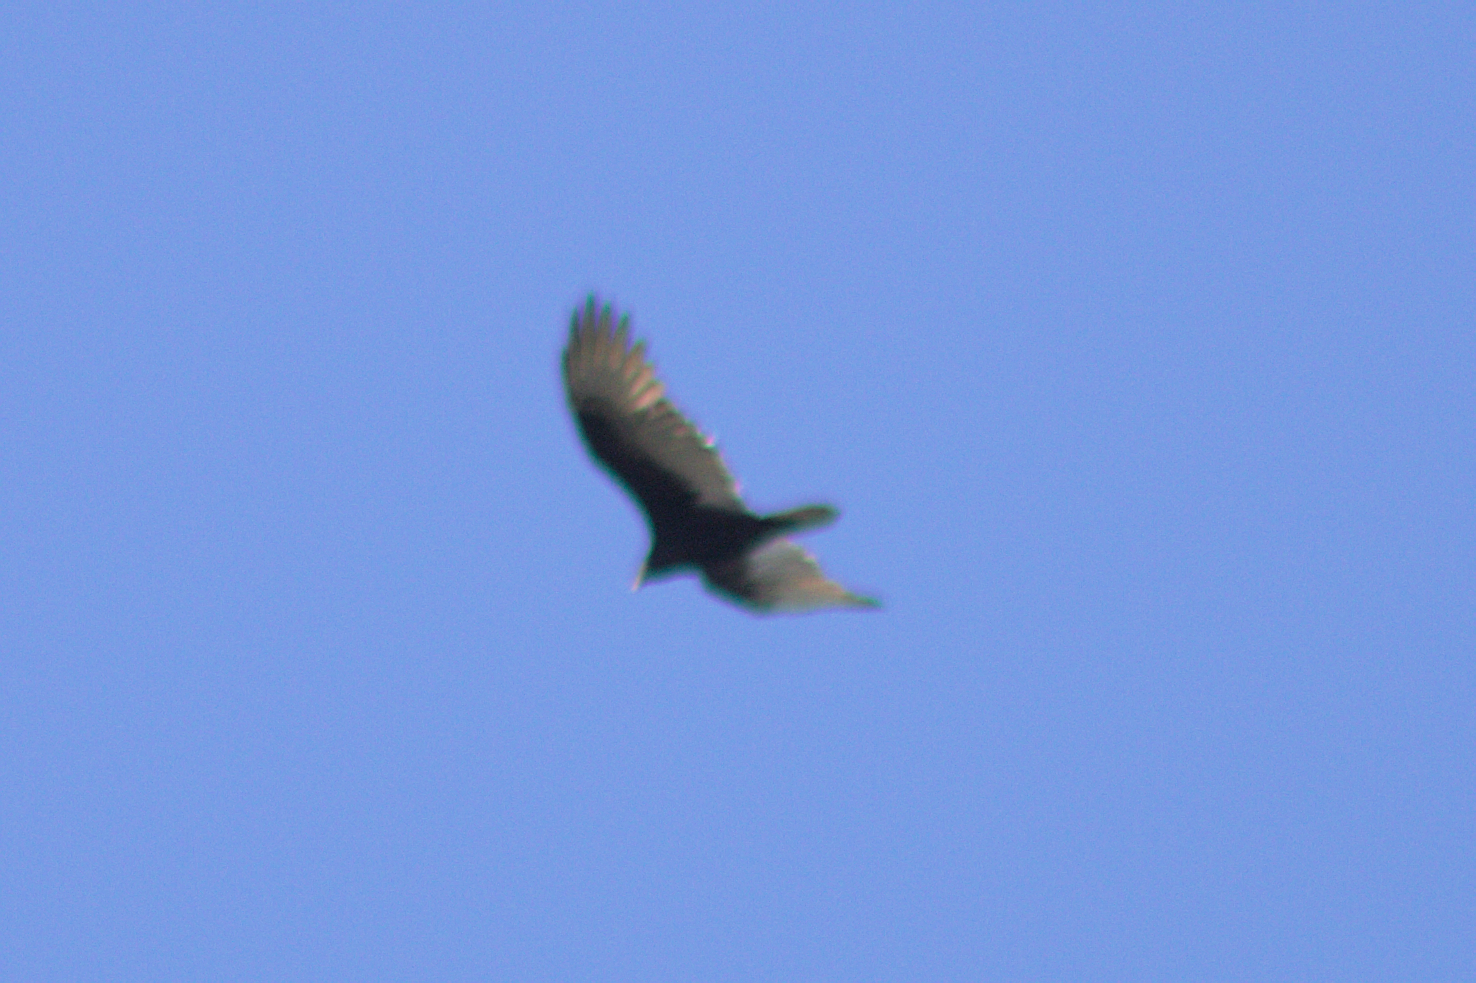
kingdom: Animalia
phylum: Chordata
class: Aves
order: Accipitriformes
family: Cathartidae
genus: Cathartes
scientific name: Cathartes aura
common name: Turkey vulture
